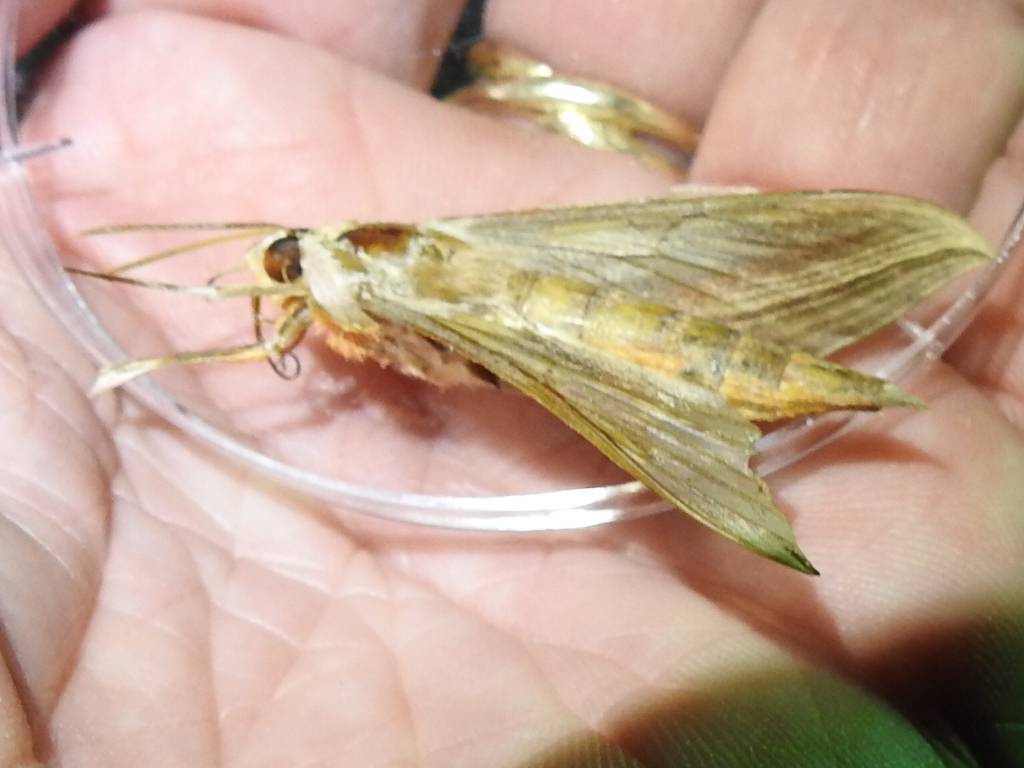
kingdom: Animalia
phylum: Arthropoda
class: Insecta
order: Lepidoptera
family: Sphingidae
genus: Xylophanes
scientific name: Xylophanes tersa
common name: Tersa sphinx
